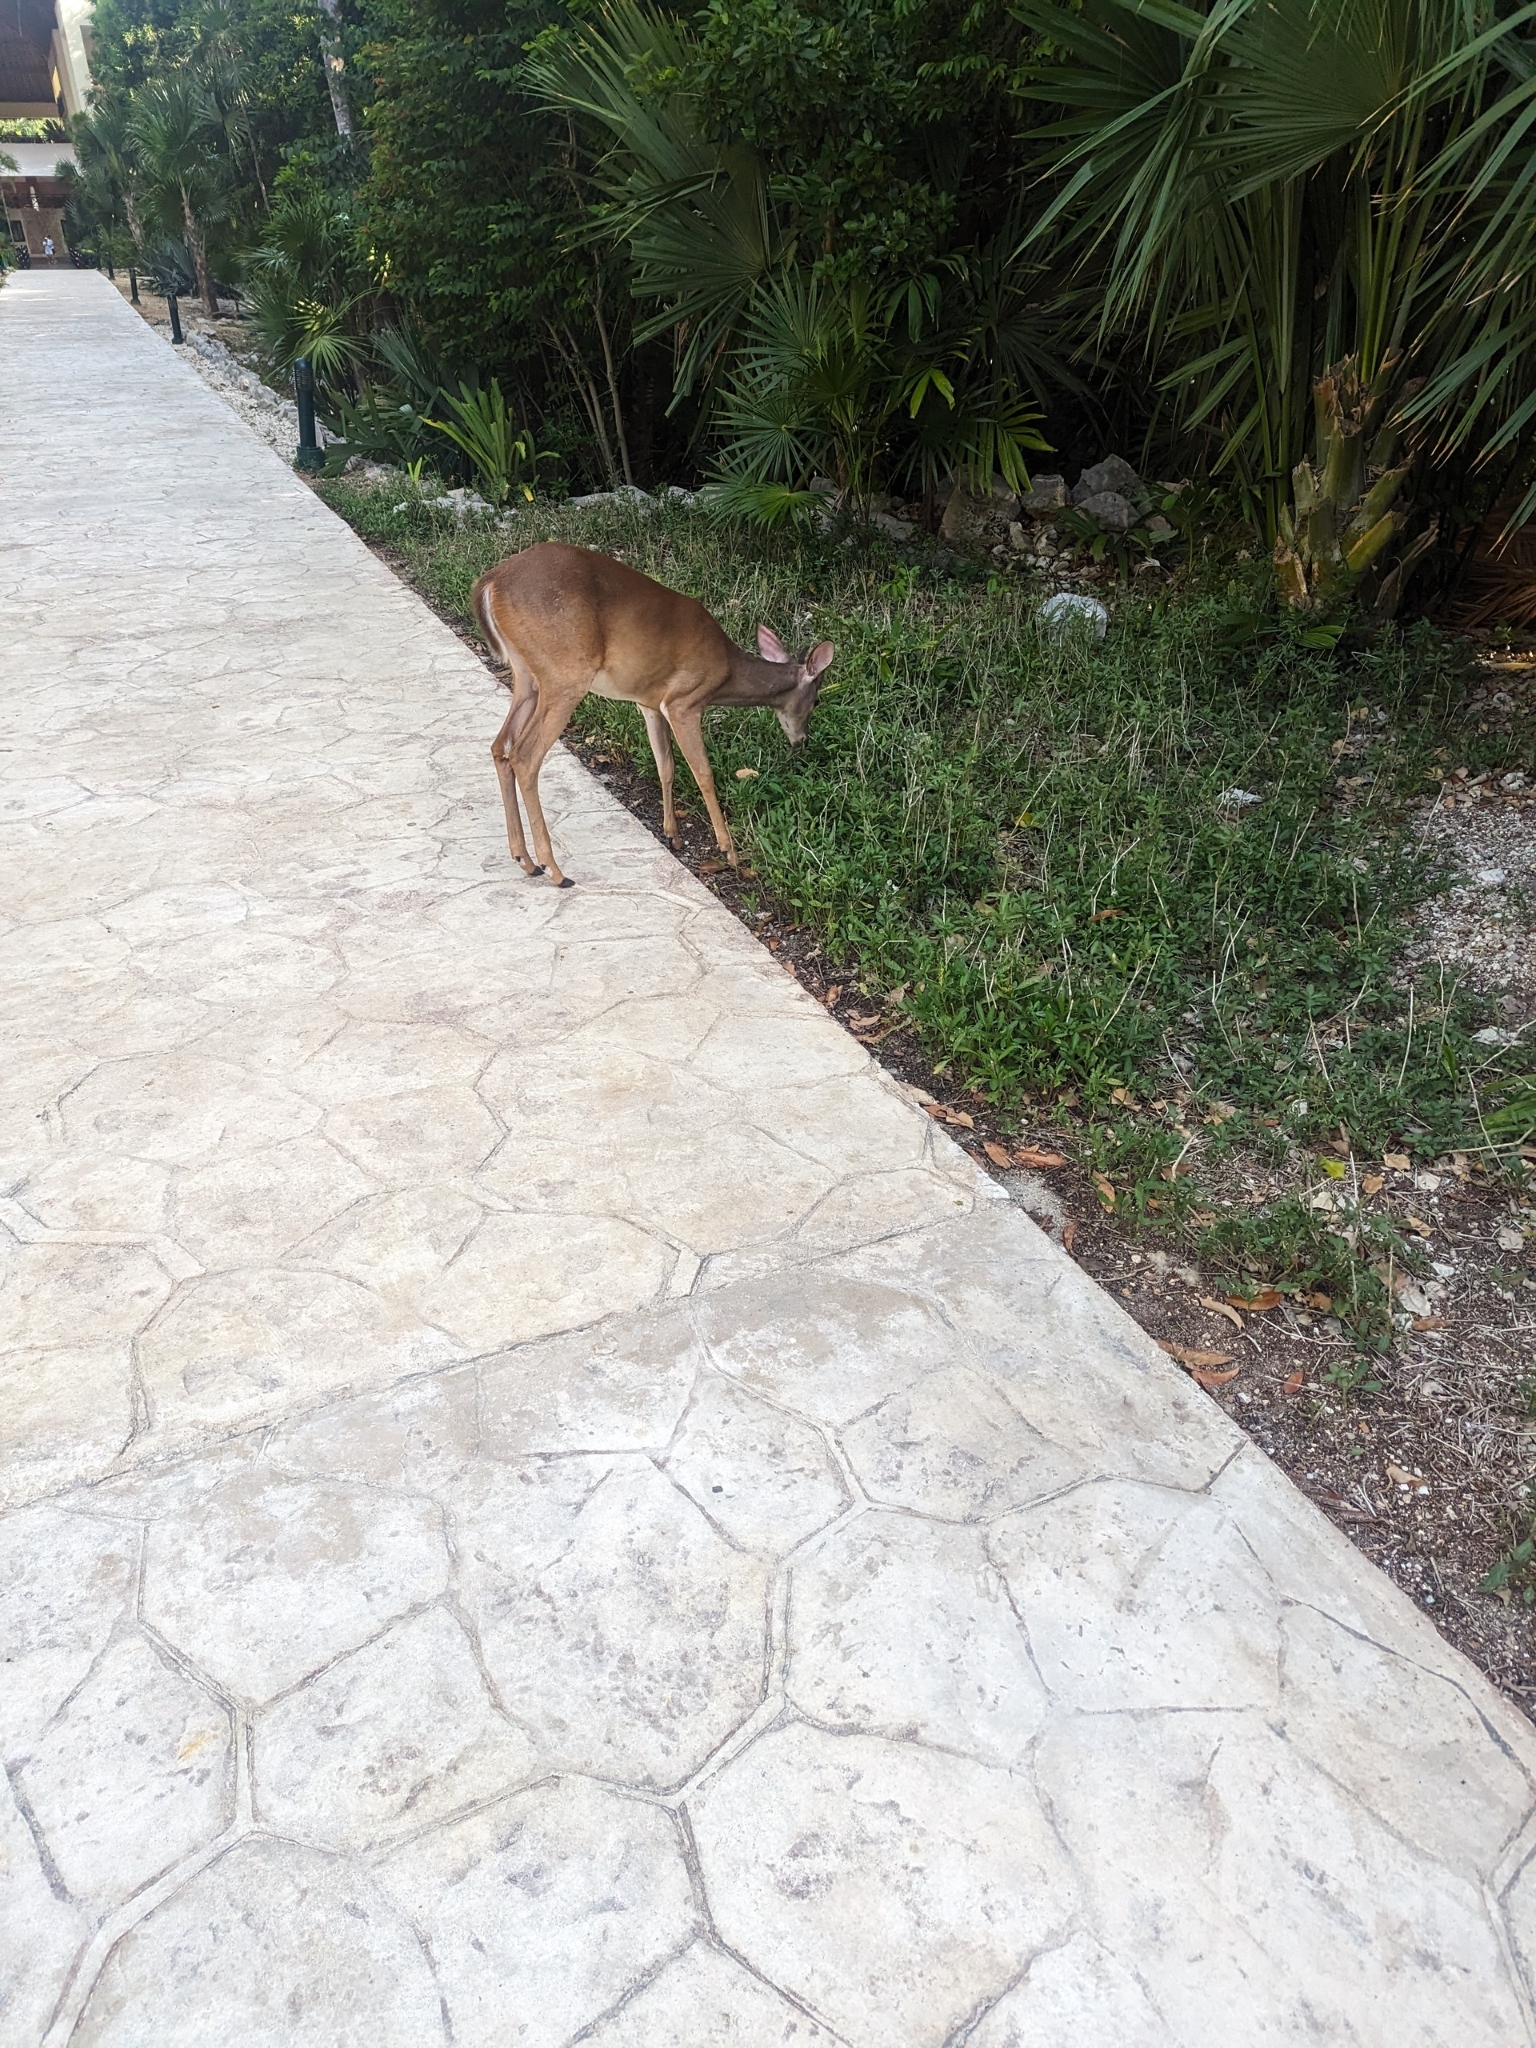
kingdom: Animalia
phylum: Chordata
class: Mammalia
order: Artiodactyla
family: Cervidae
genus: Odocoileus
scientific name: Odocoileus virginianus
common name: White-tailed deer
